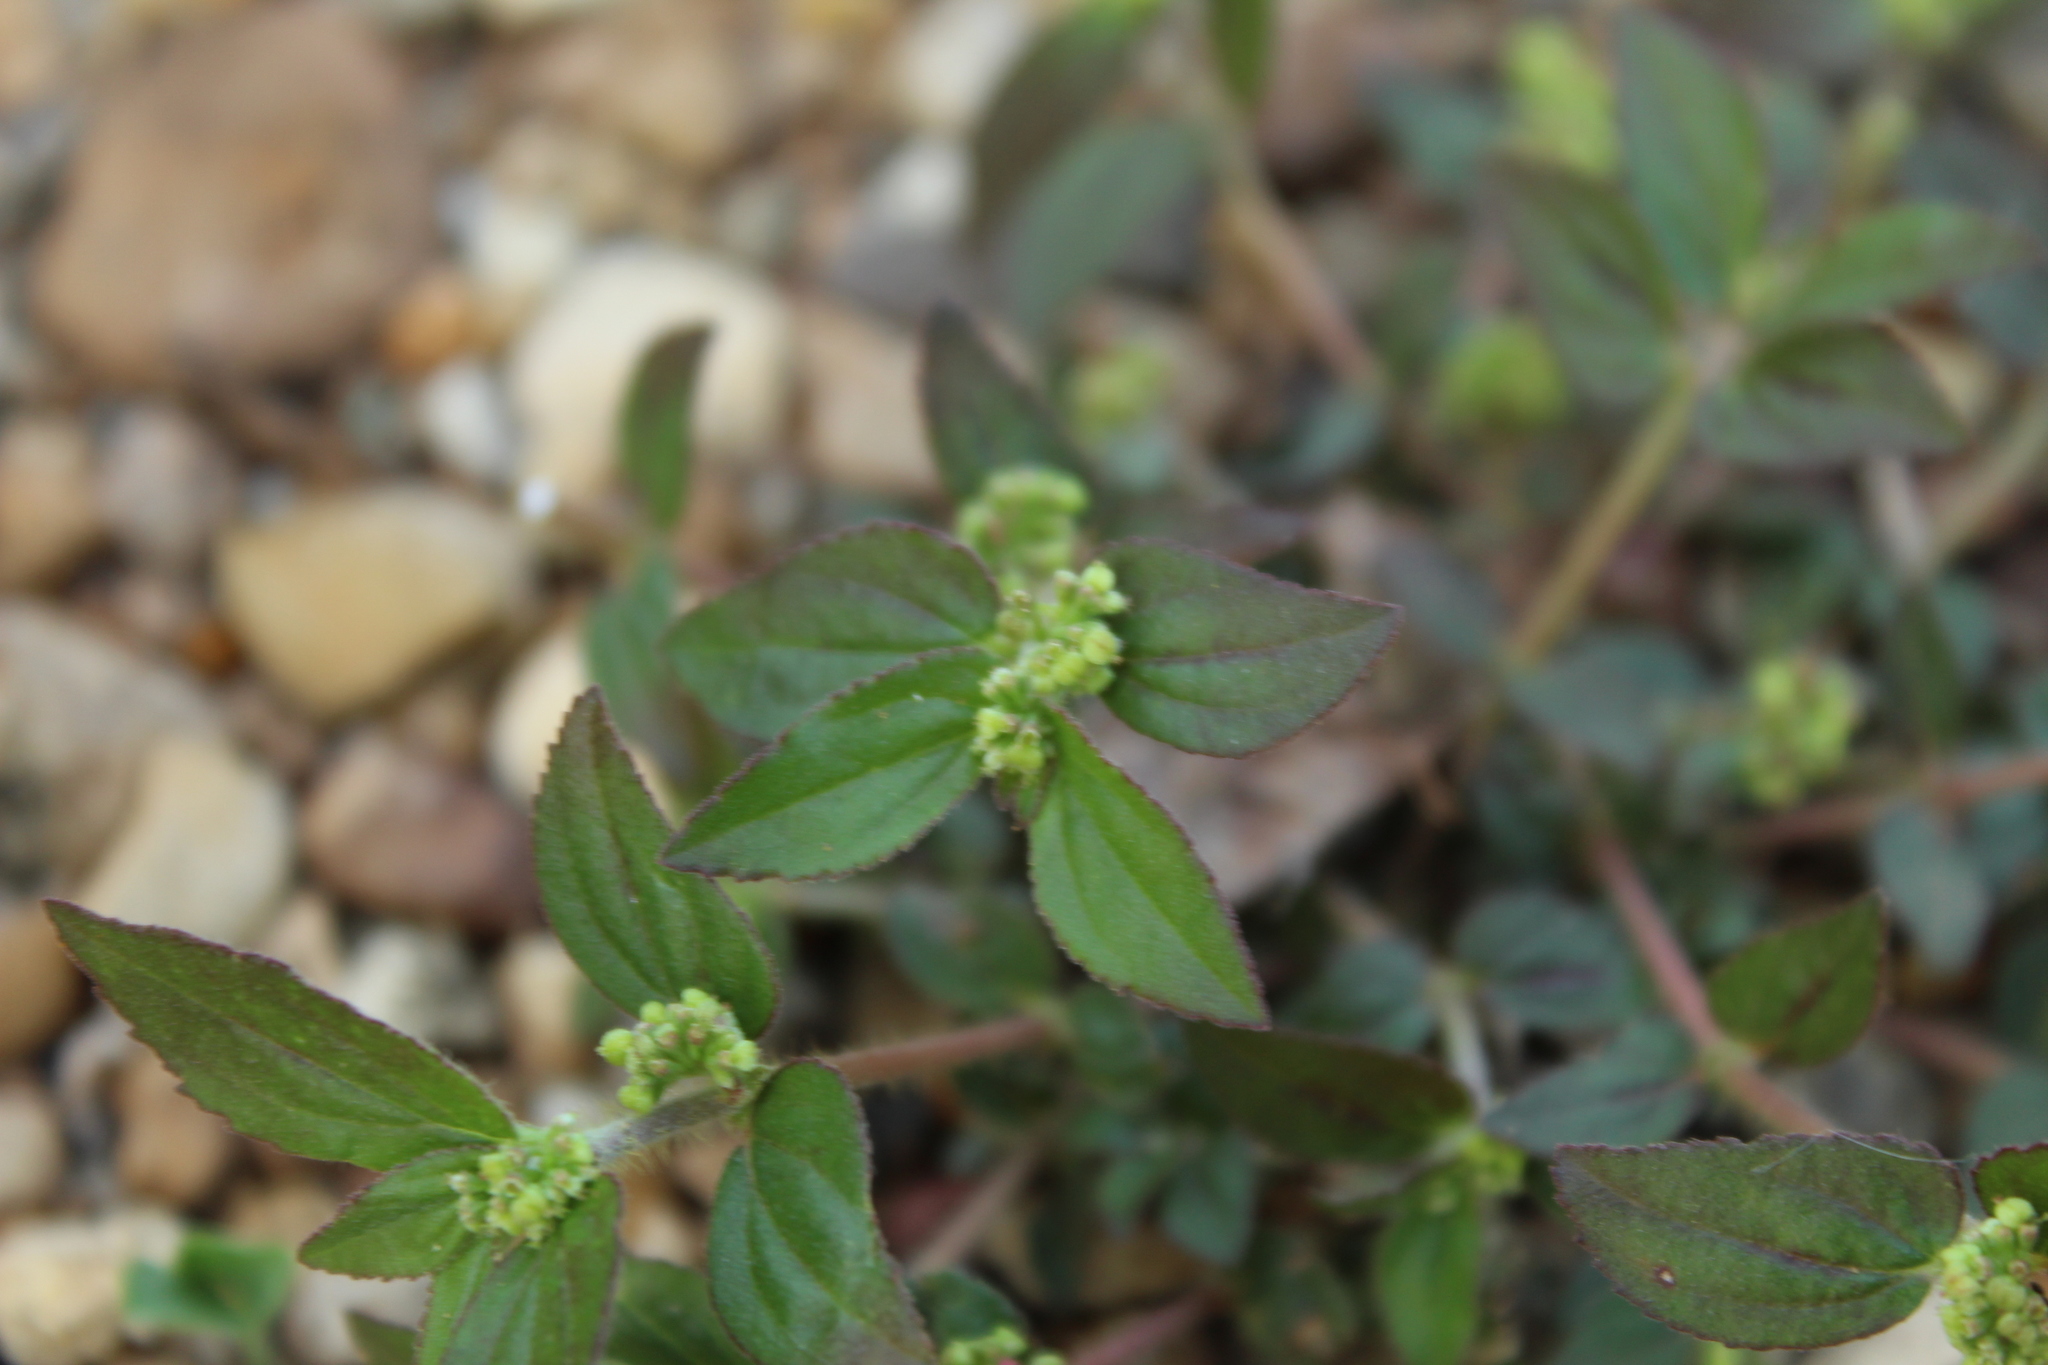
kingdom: Plantae
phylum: Tracheophyta
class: Magnoliopsida
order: Malpighiales
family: Euphorbiaceae
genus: Euphorbia
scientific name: Euphorbia hirta
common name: Pillpod sandmat
